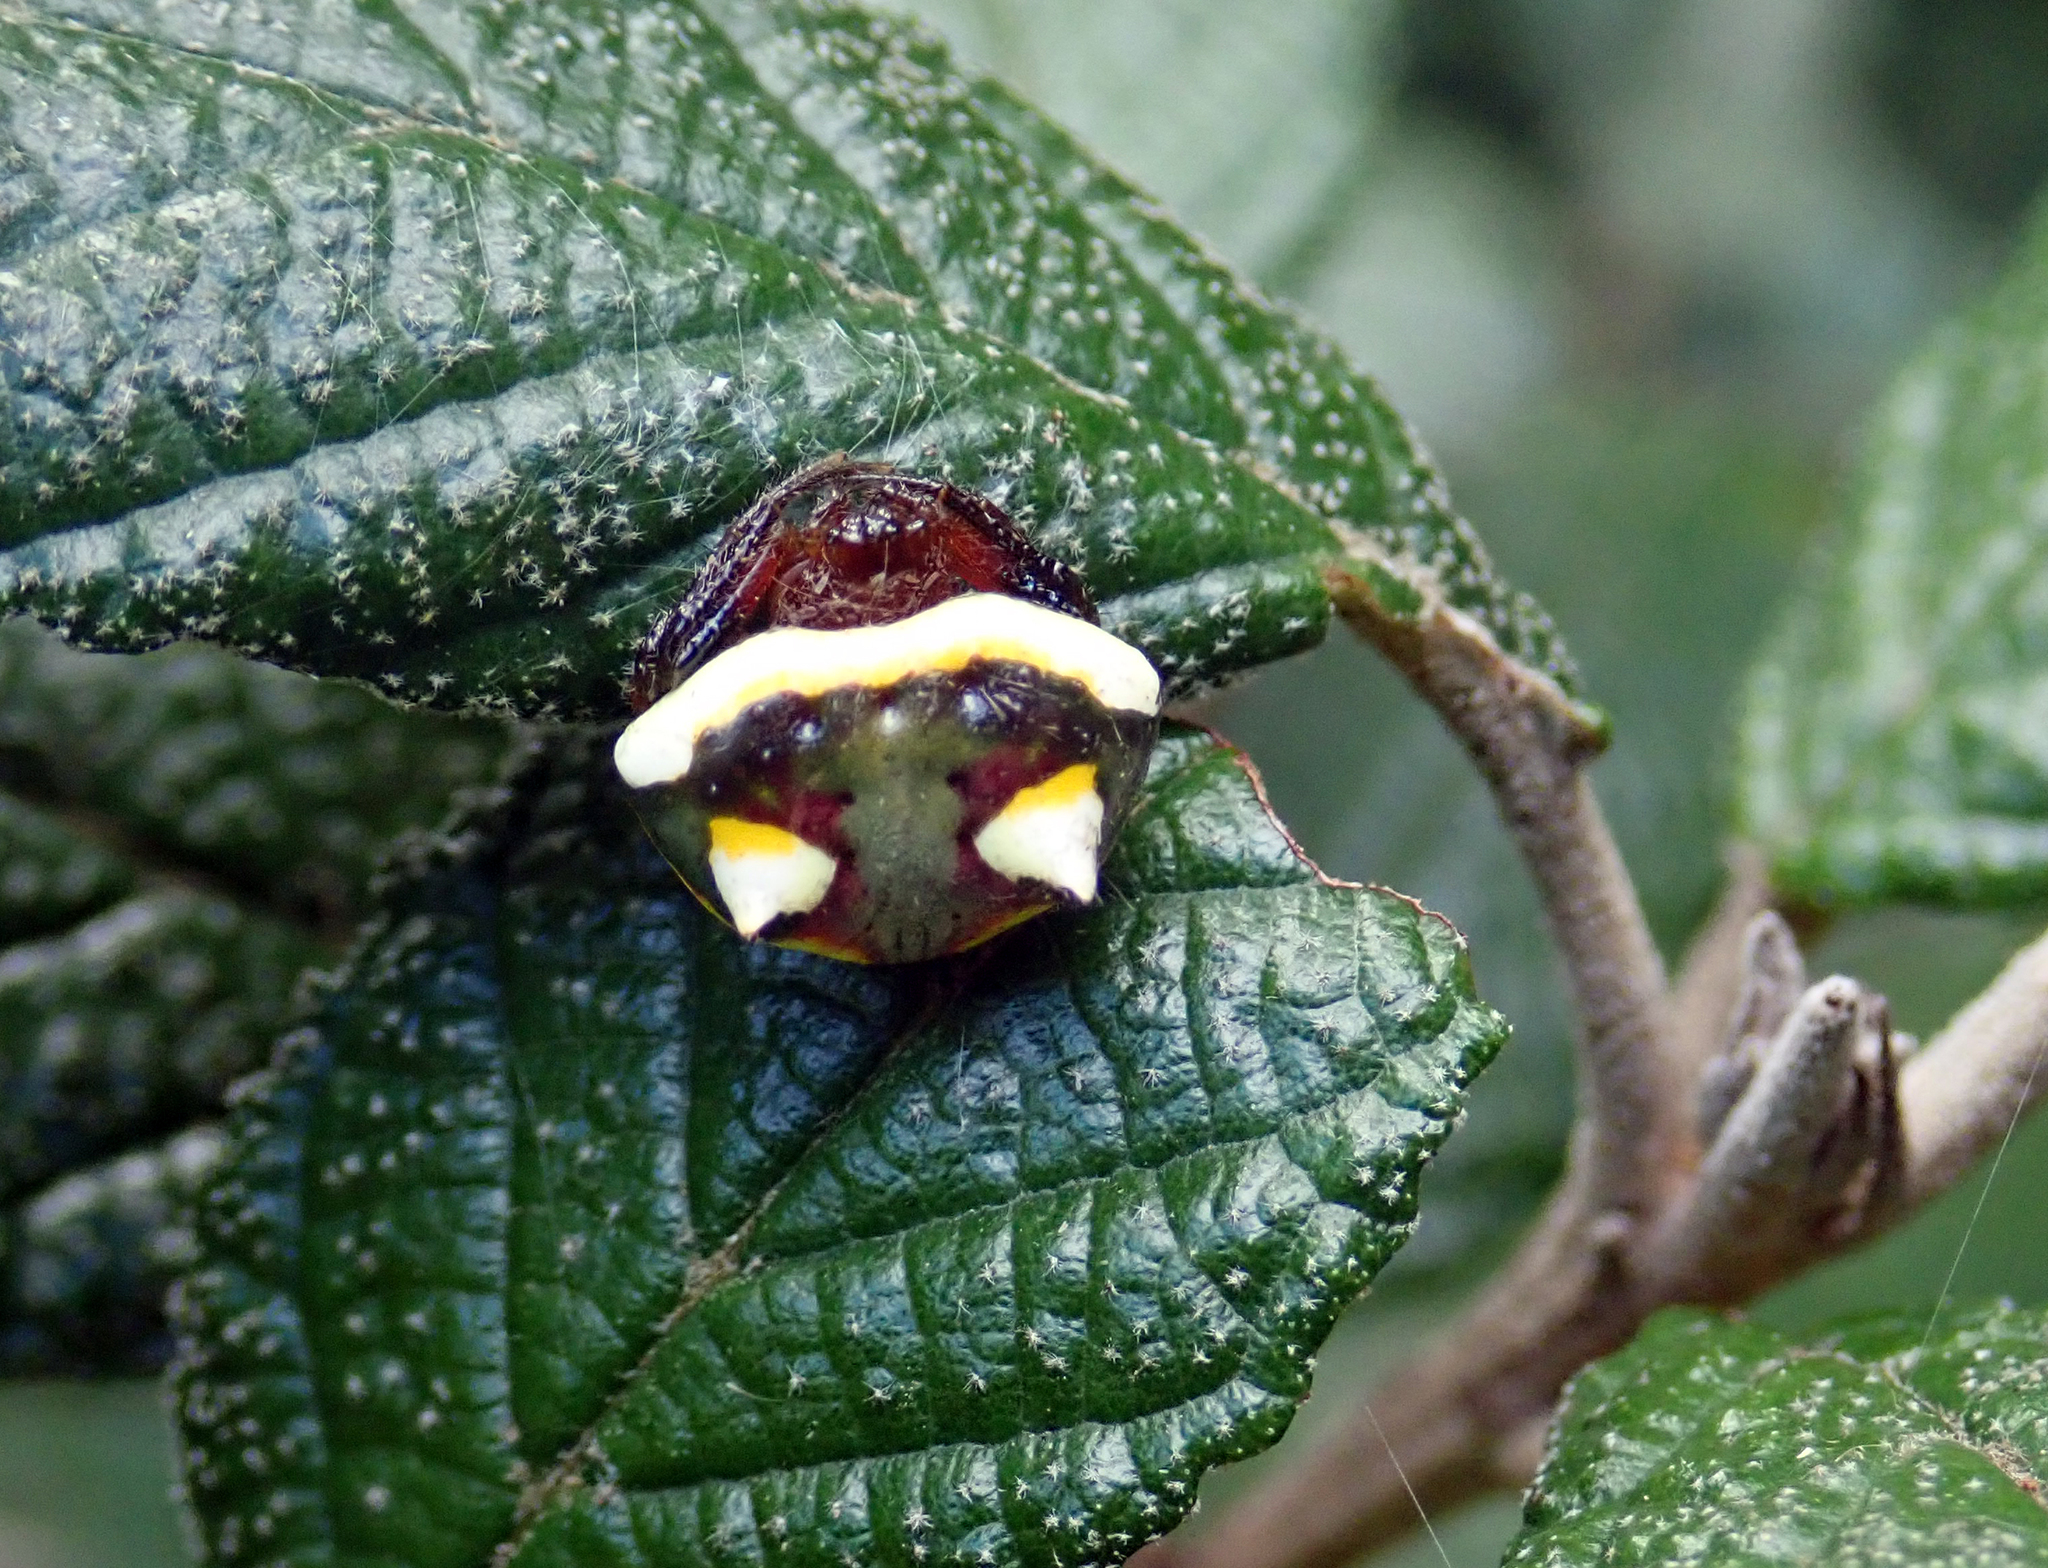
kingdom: Animalia
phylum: Arthropoda
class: Arachnida
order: Araneae
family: Araneidae
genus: Poecilopachys
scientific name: Poecilopachys australasia
